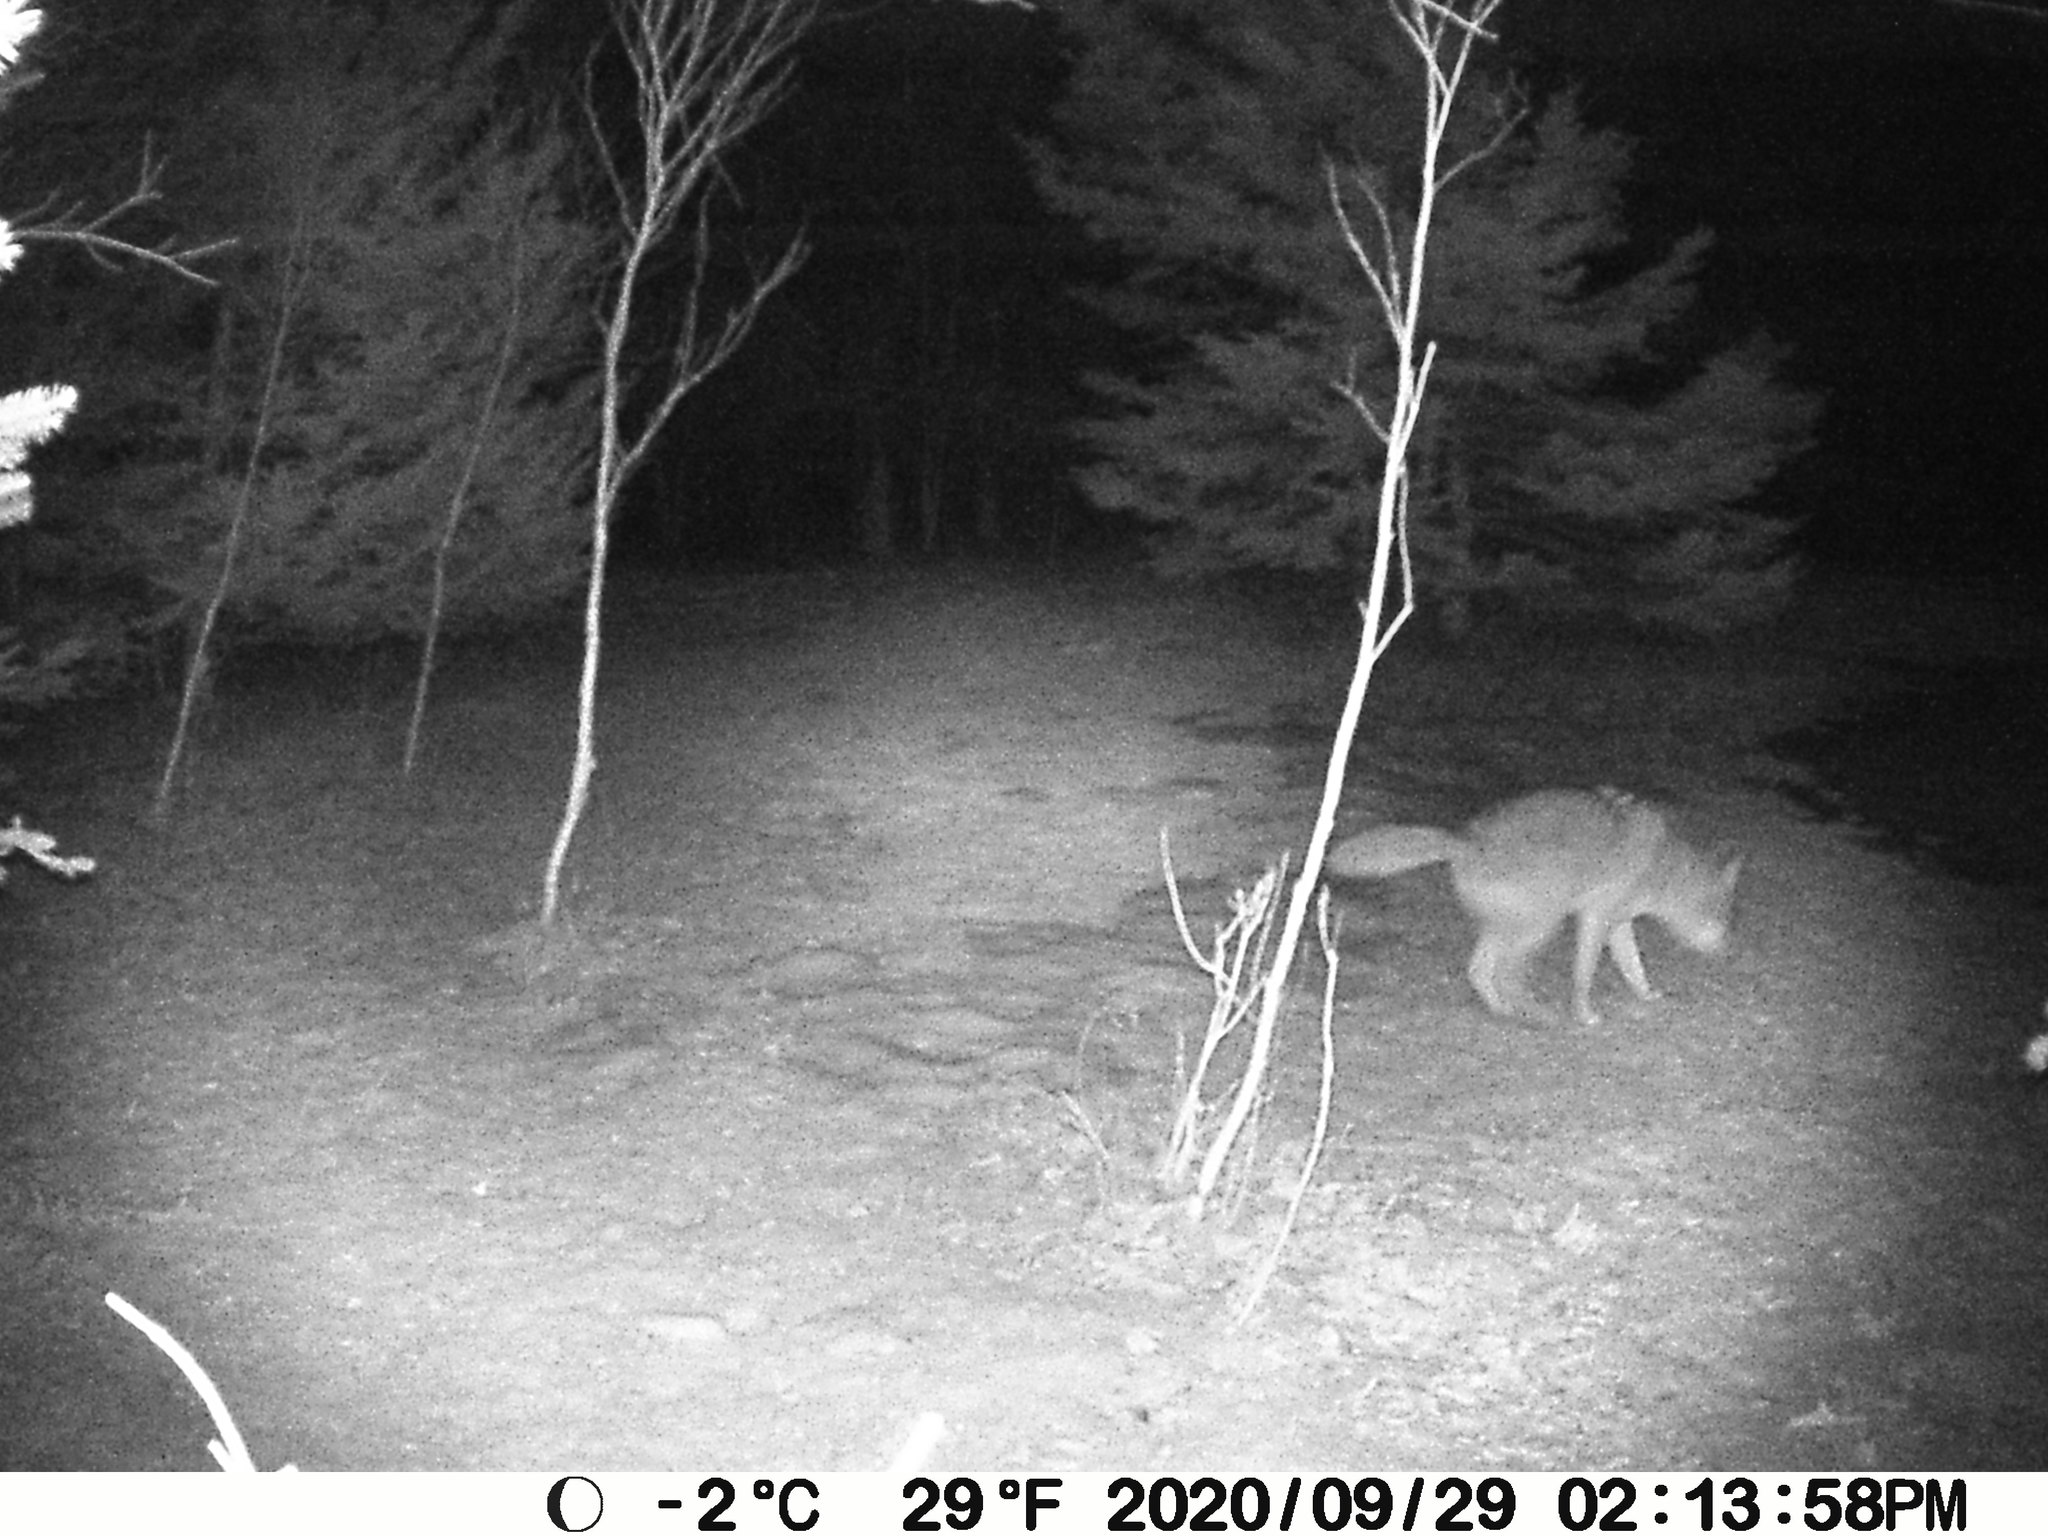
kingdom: Animalia
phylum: Chordata
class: Mammalia
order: Carnivora
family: Canidae
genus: Canis
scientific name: Canis latrans
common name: Coyote
